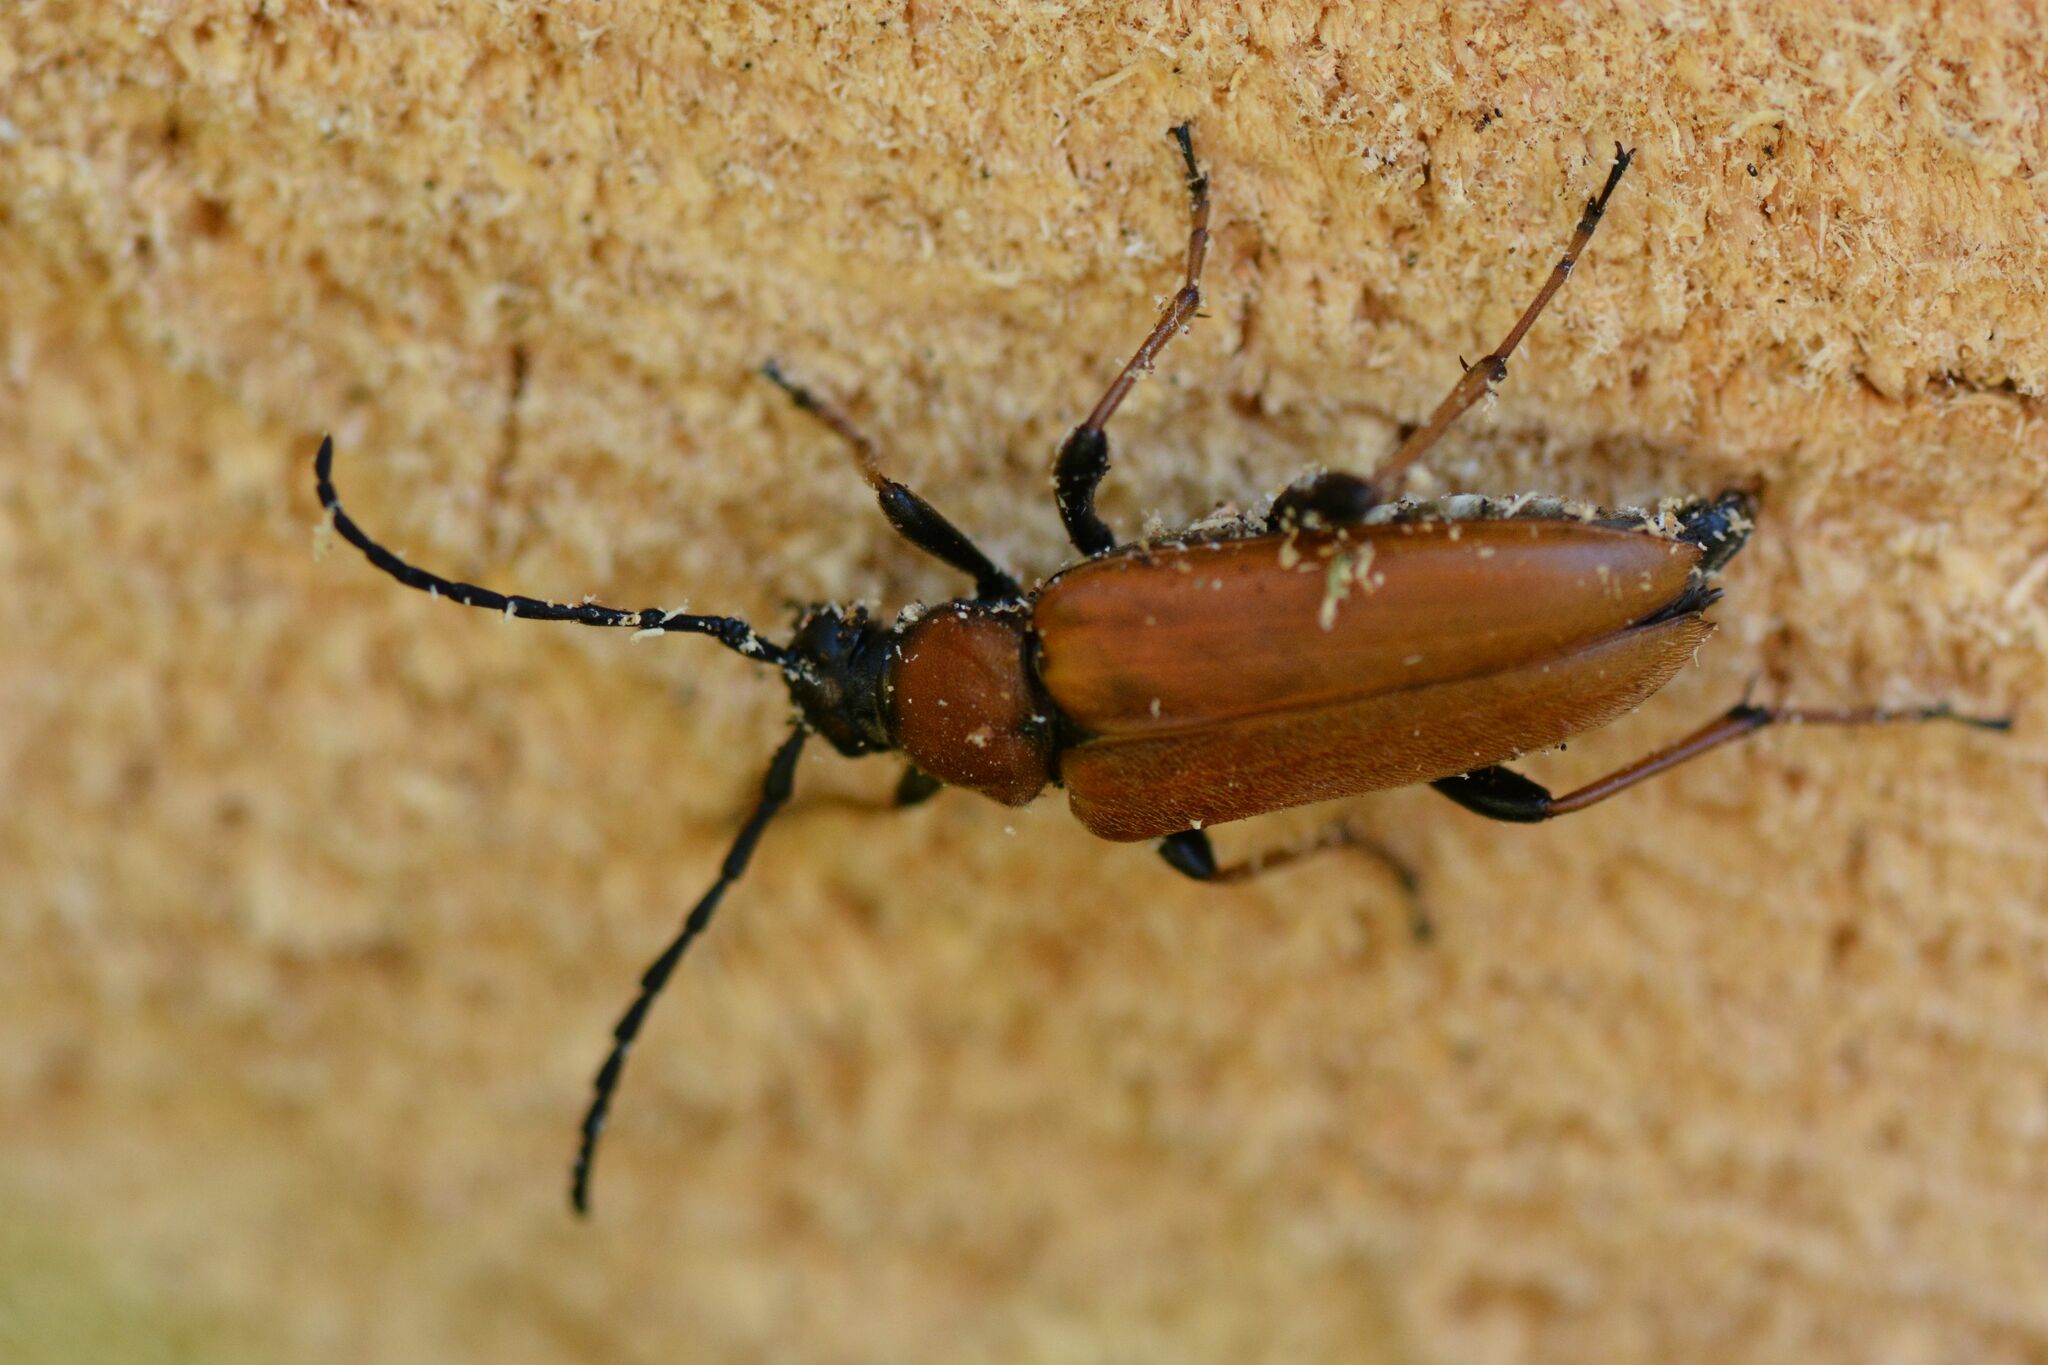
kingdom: Animalia
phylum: Arthropoda
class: Insecta
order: Coleoptera
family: Cerambycidae
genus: Stictoleptura
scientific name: Stictoleptura rubra
